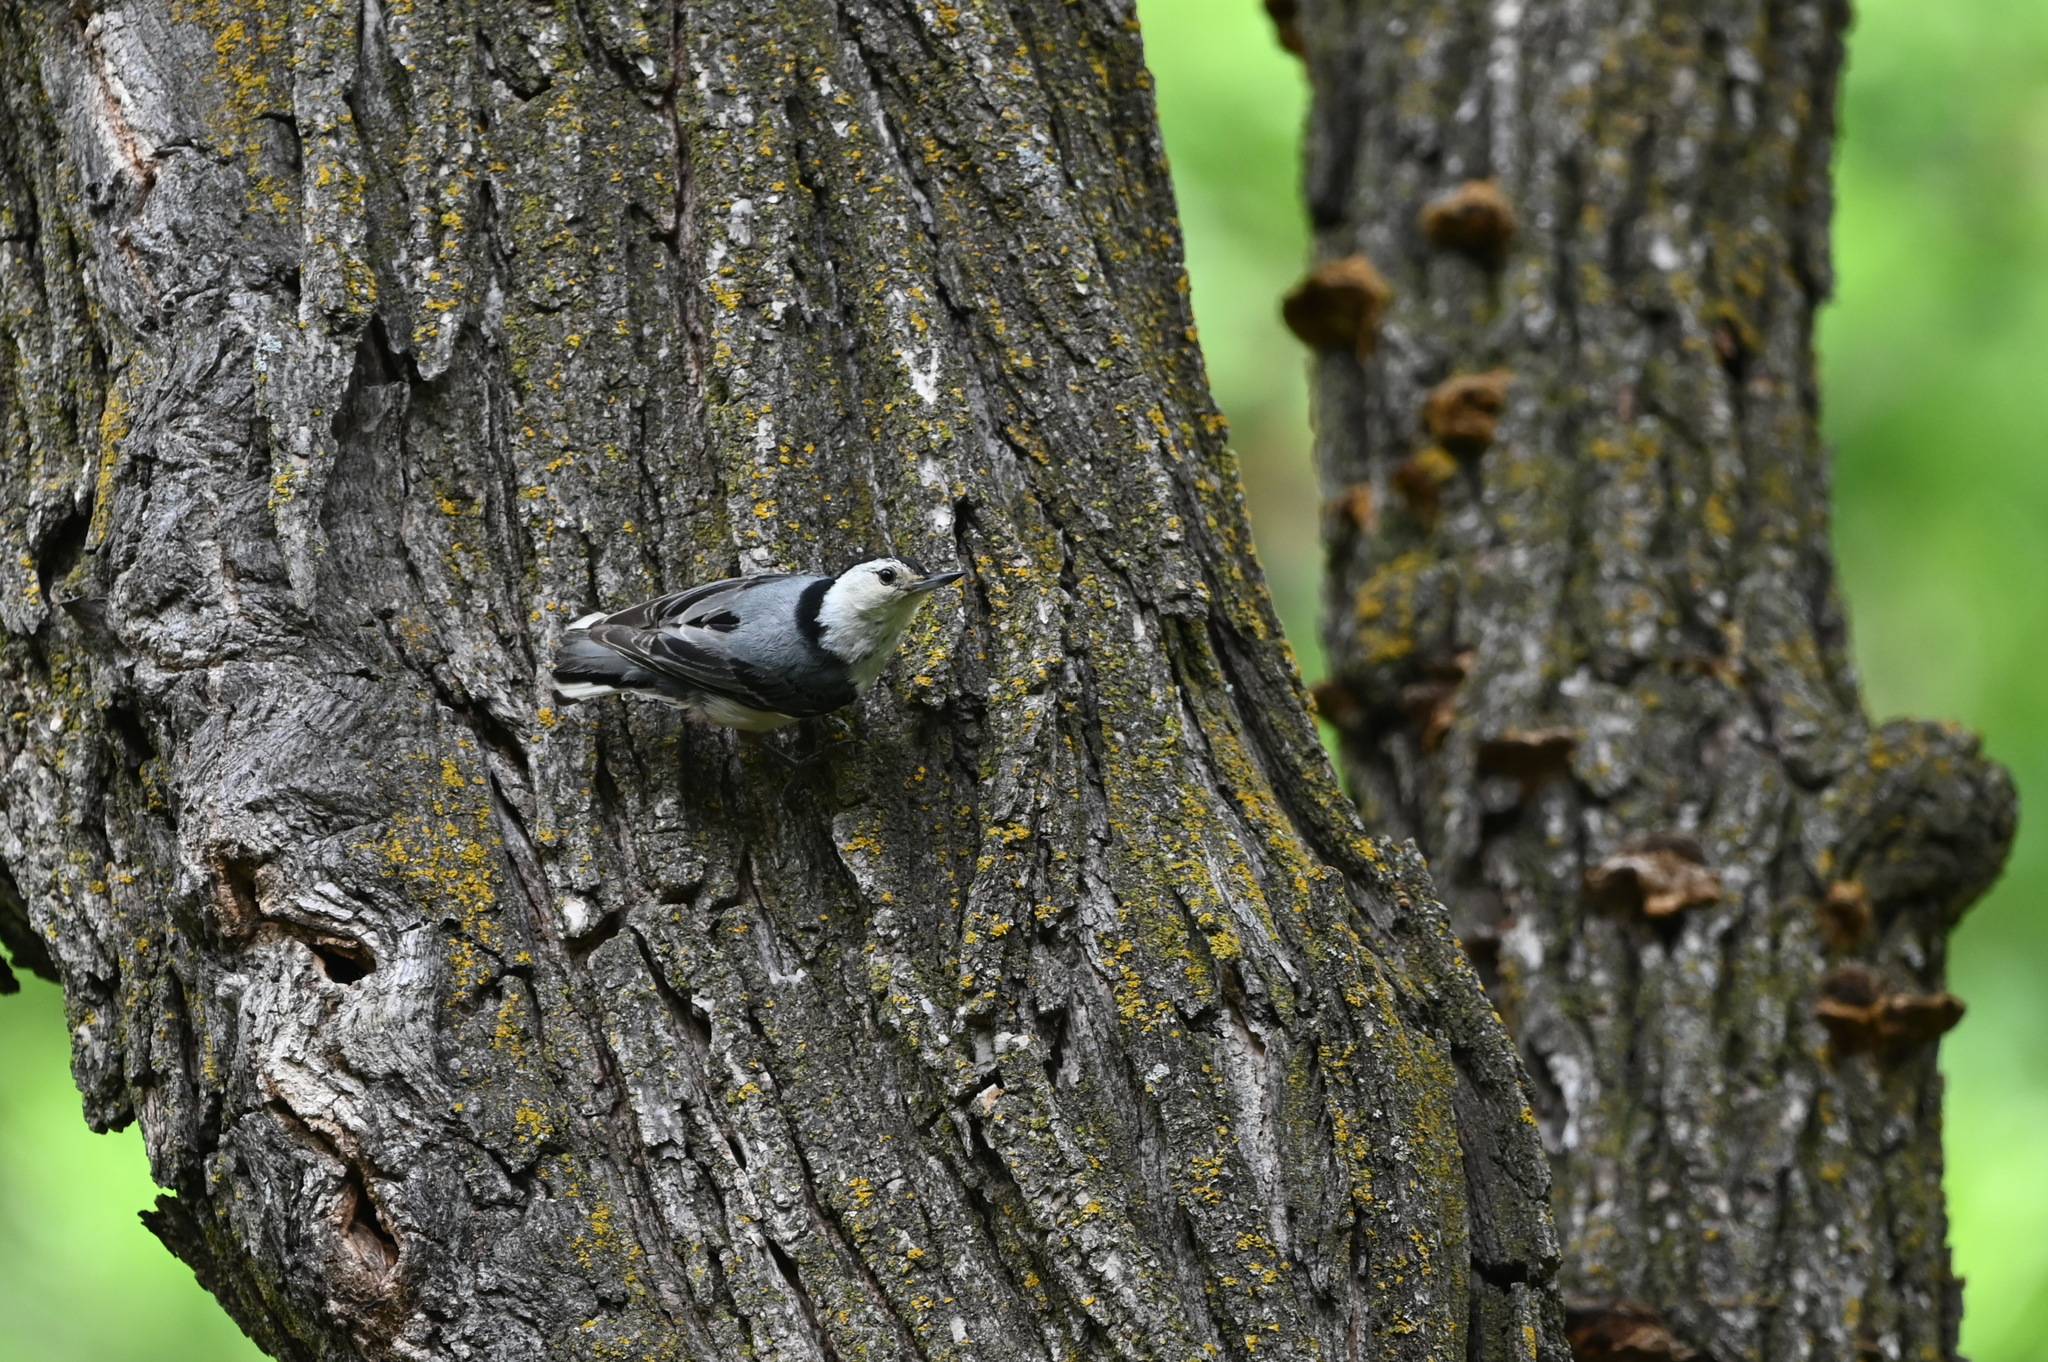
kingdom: Animalia
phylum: Chordata
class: Aves
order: Passeriformes
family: Sittidae
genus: Sitta
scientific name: Sitta carolinensis
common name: White-breasted nuthatch
